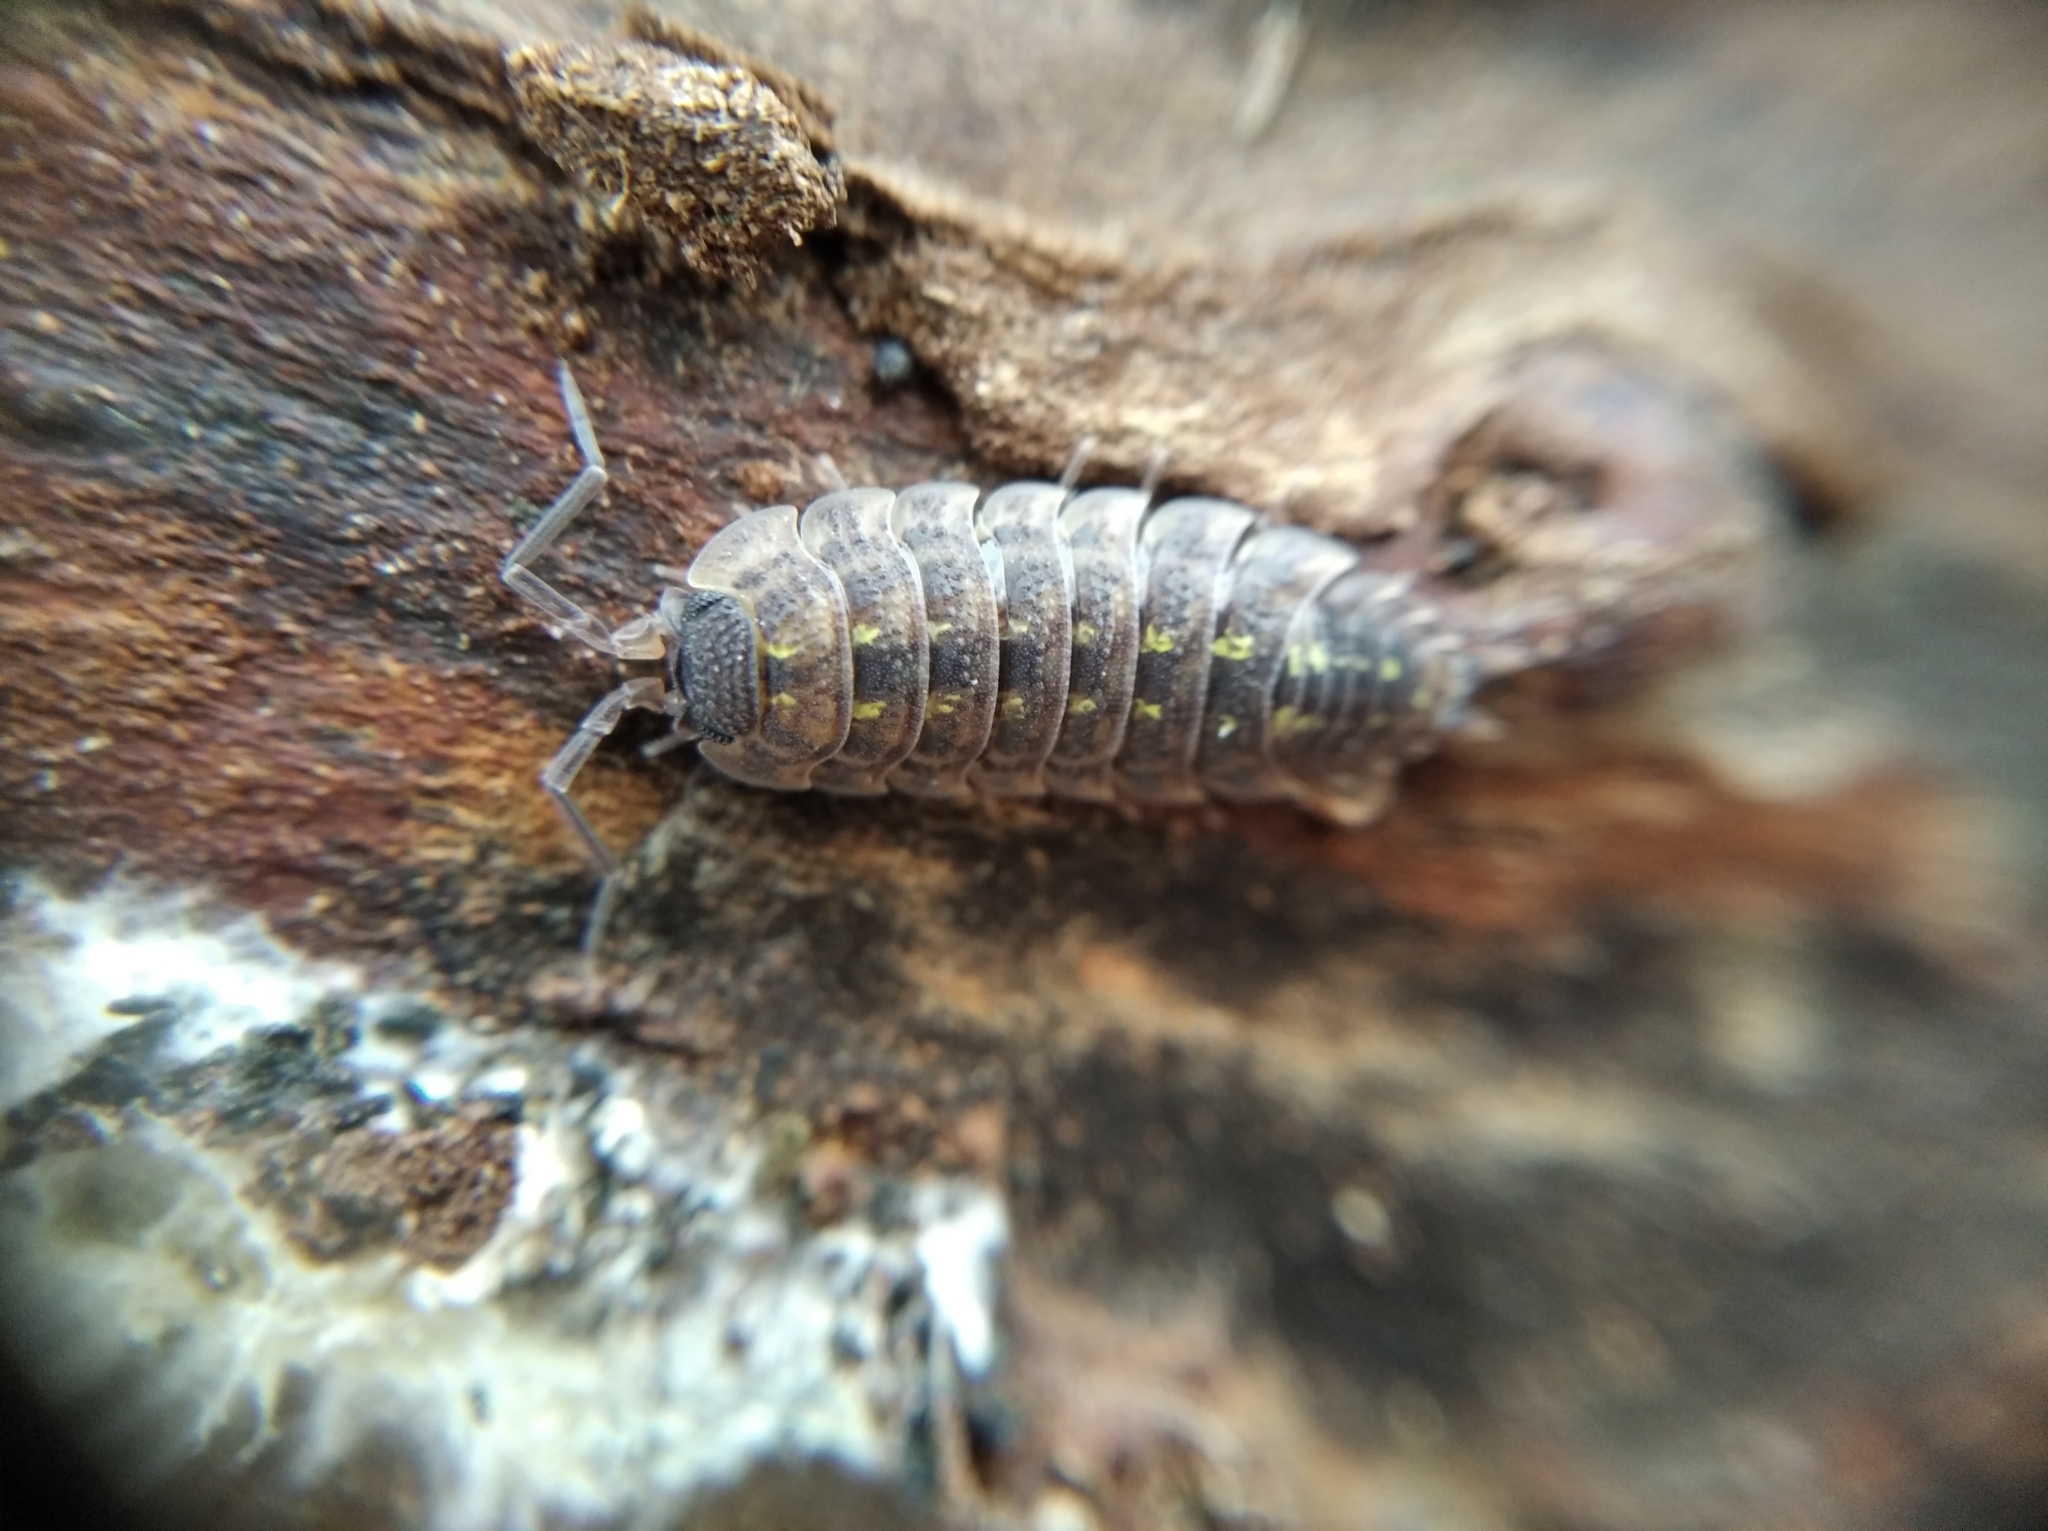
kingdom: Animalia
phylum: Arthropoda
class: Malacostraca
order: Isopoda
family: Porcellionidae
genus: Porcellio
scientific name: Porcellio spinicornis
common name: Painted woodlouse
